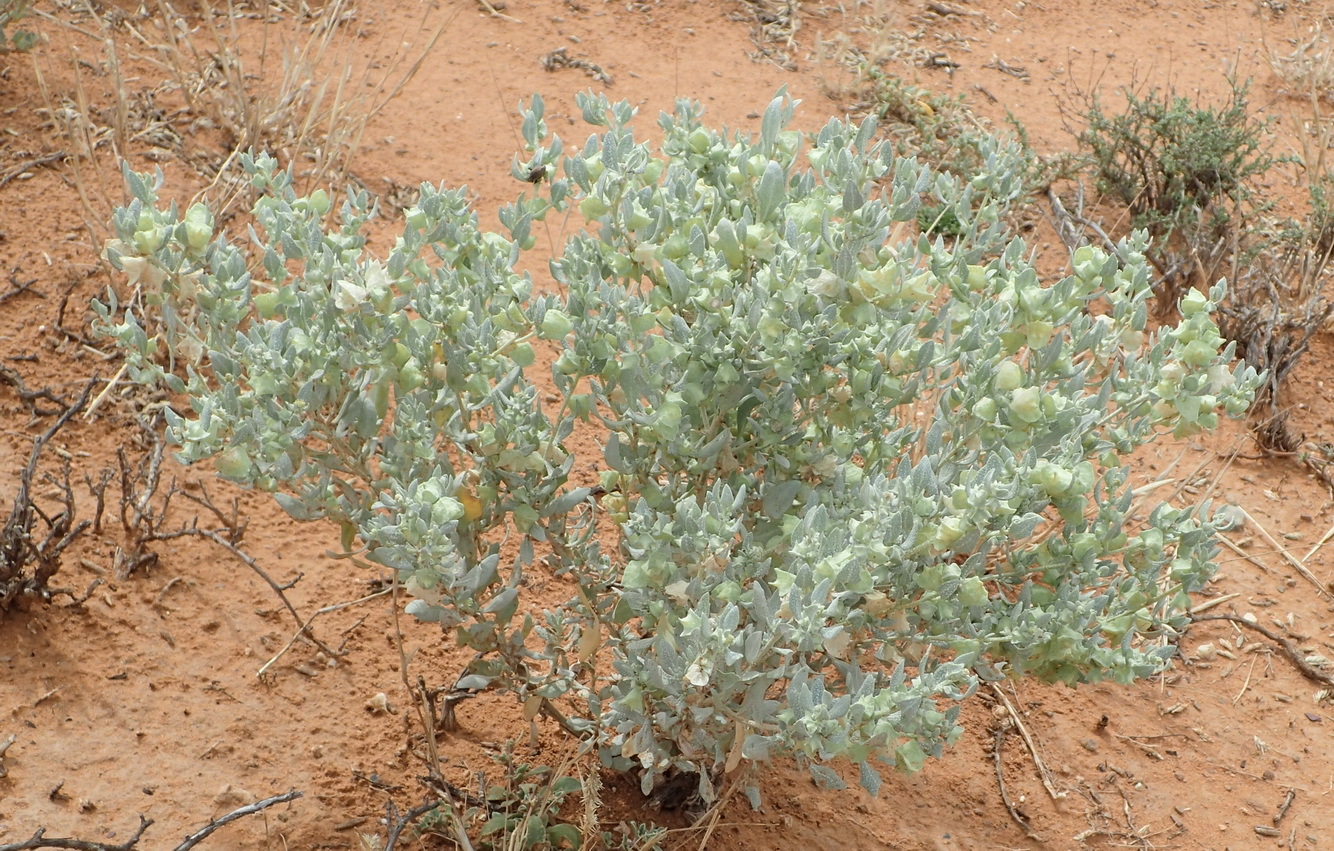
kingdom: Plantae
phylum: Tracheophyta
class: Magnoliopsida
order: Caryophyllales
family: Amaranthaceae
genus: Atriplex
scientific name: Atriplex lindleyi
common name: Lindley's saltbush
